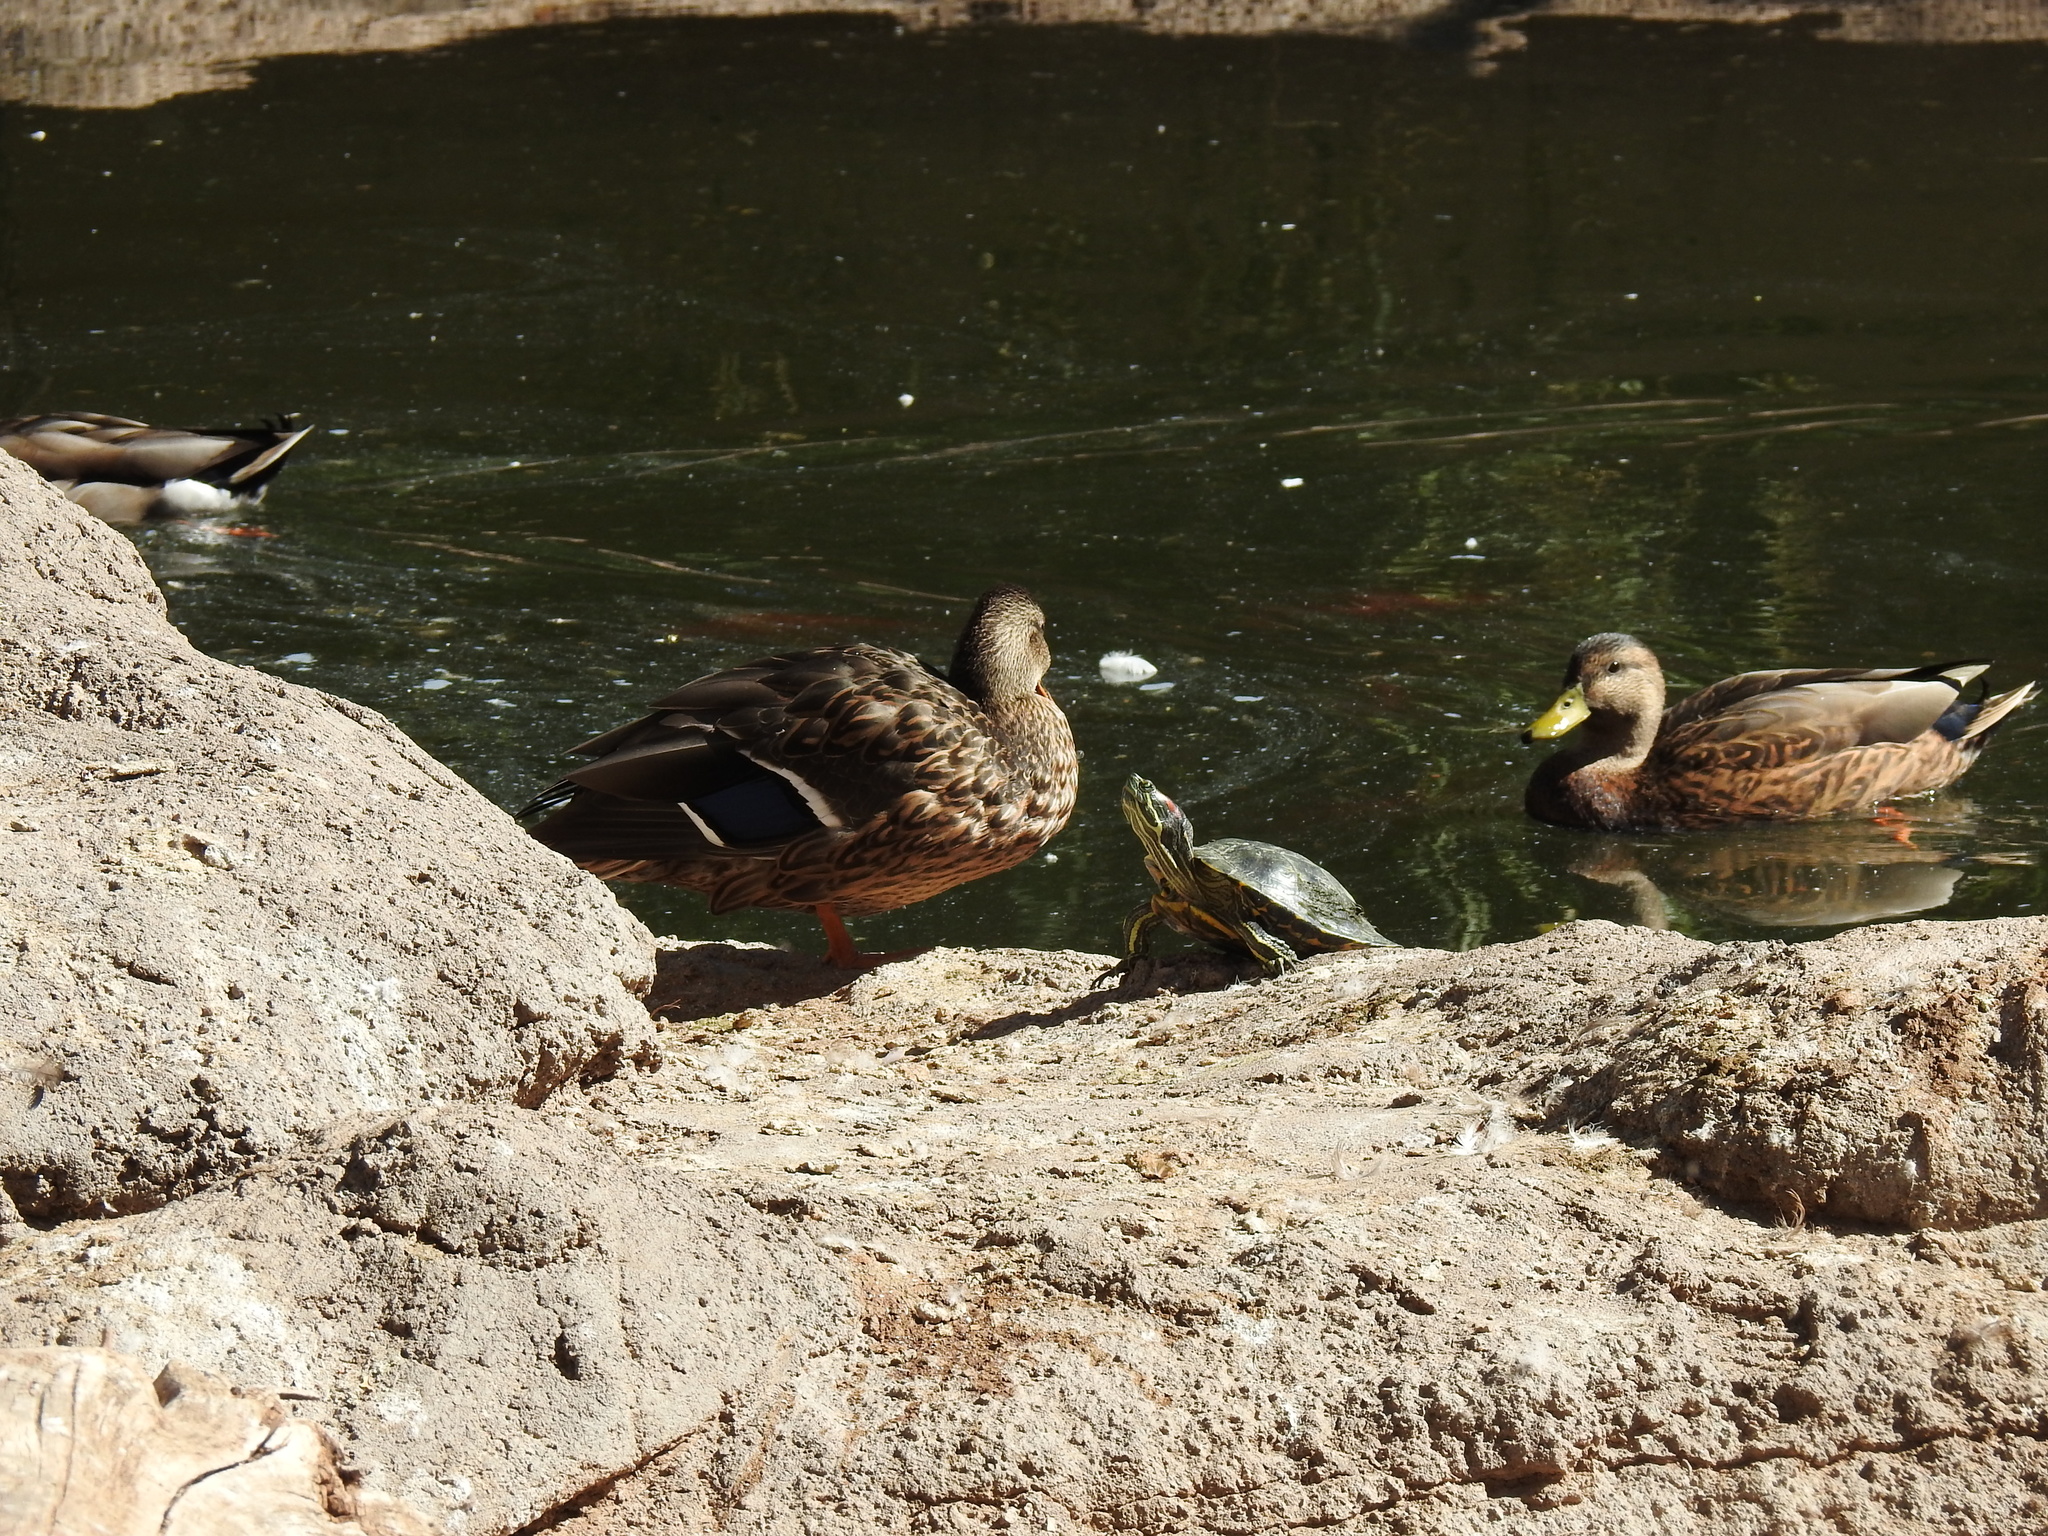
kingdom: Animalia
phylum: Chordata
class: Aves
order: Anseriformes
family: Anatidae
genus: Anas
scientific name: Anas platyrhynchos
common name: Mallard
